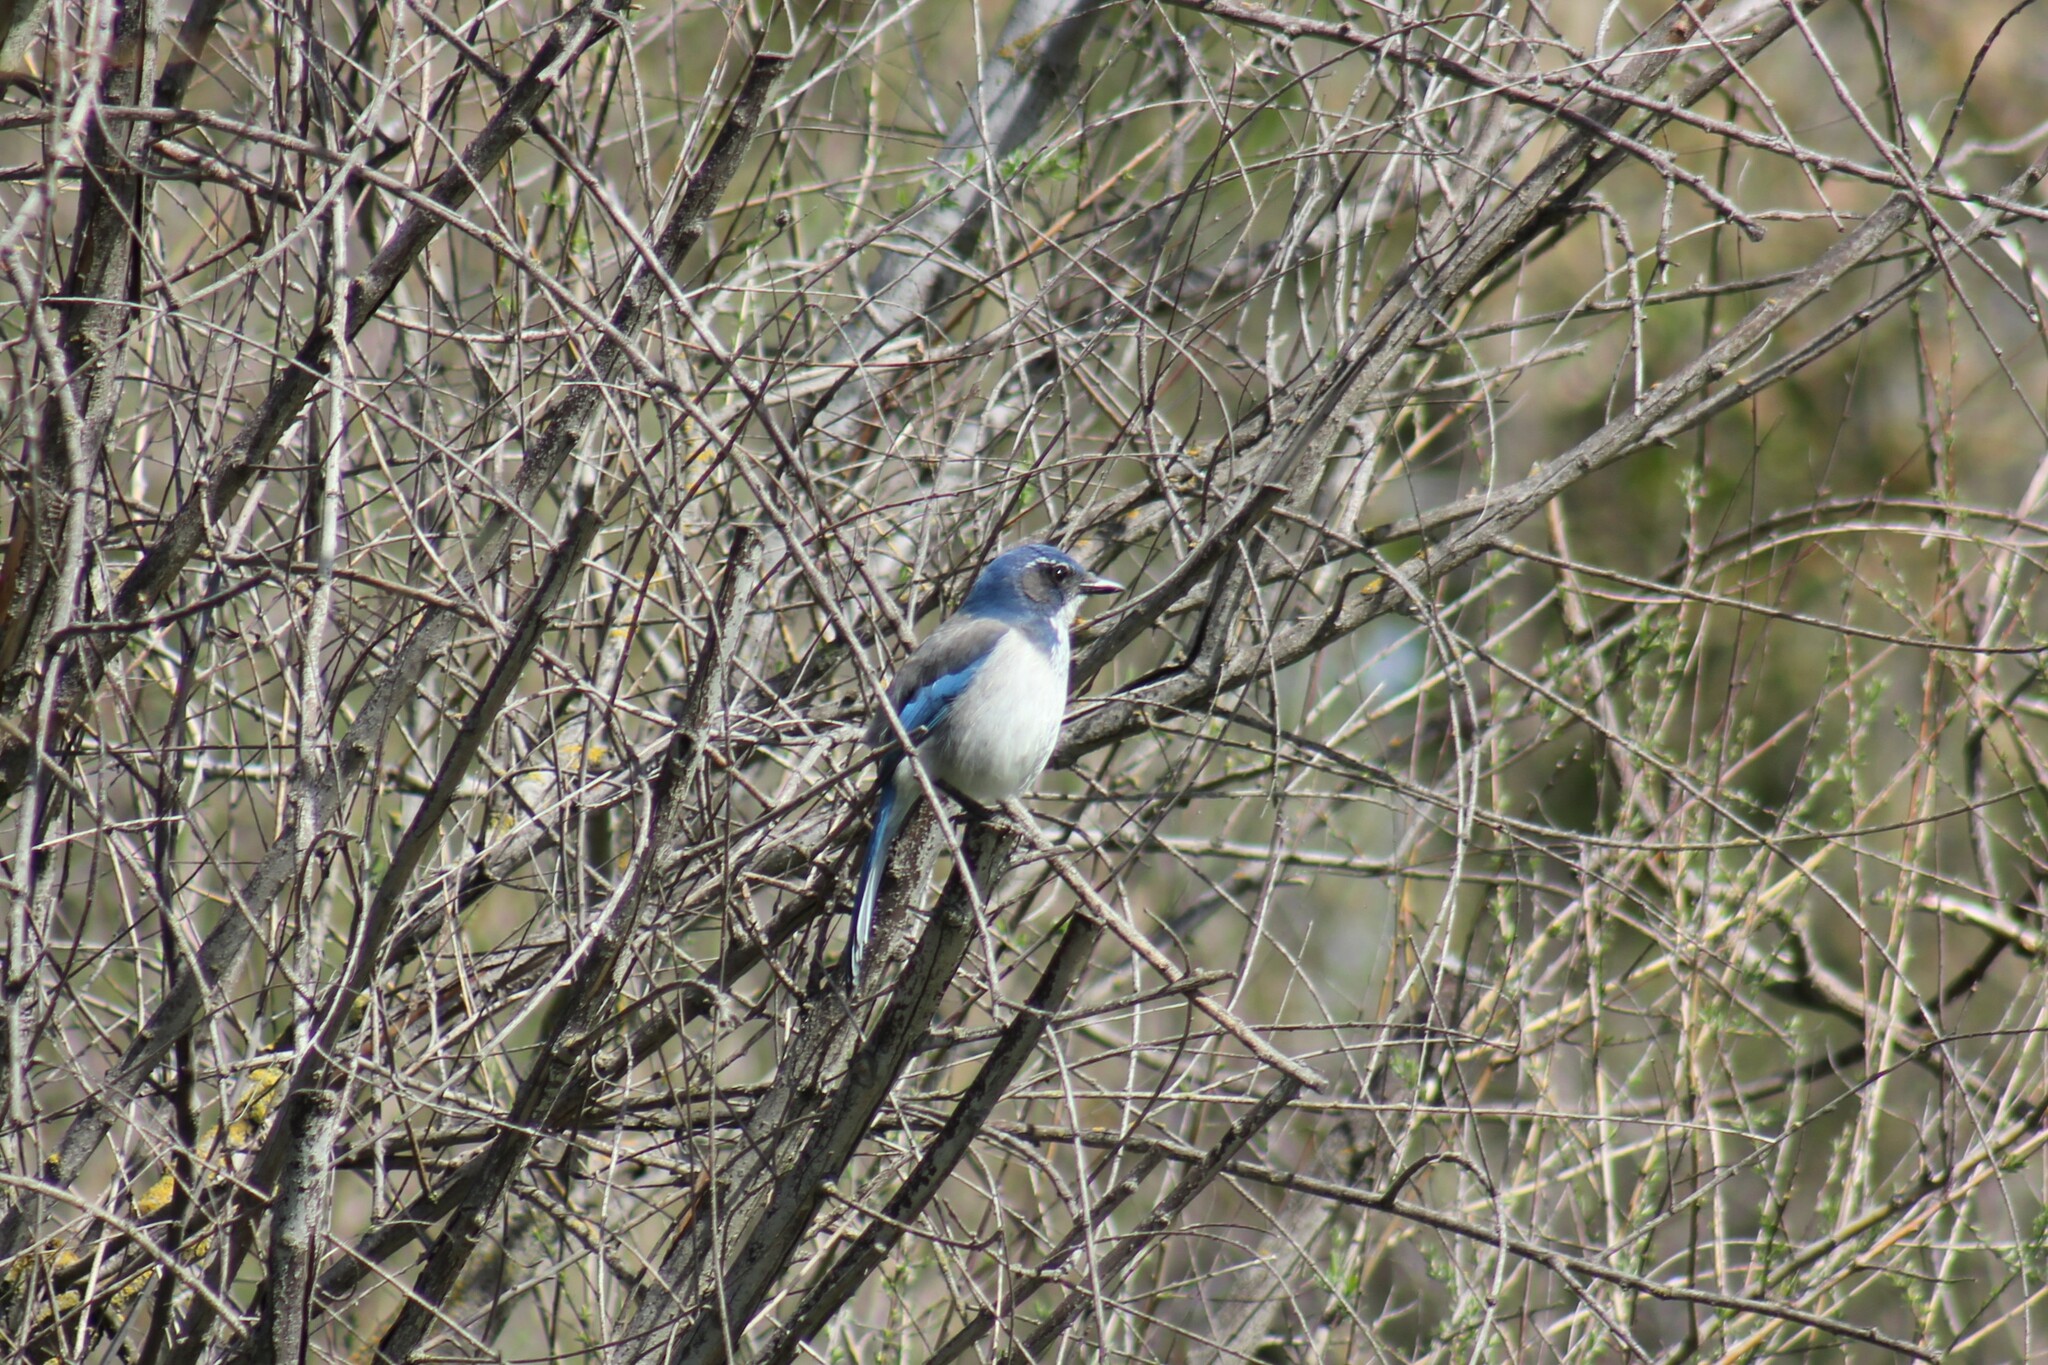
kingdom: Animalia
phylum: Chordata
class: Aves
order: Passeriformes
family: Corvidae
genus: Aphelocoma
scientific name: Aphelocoma californica
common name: California scrub-jay
